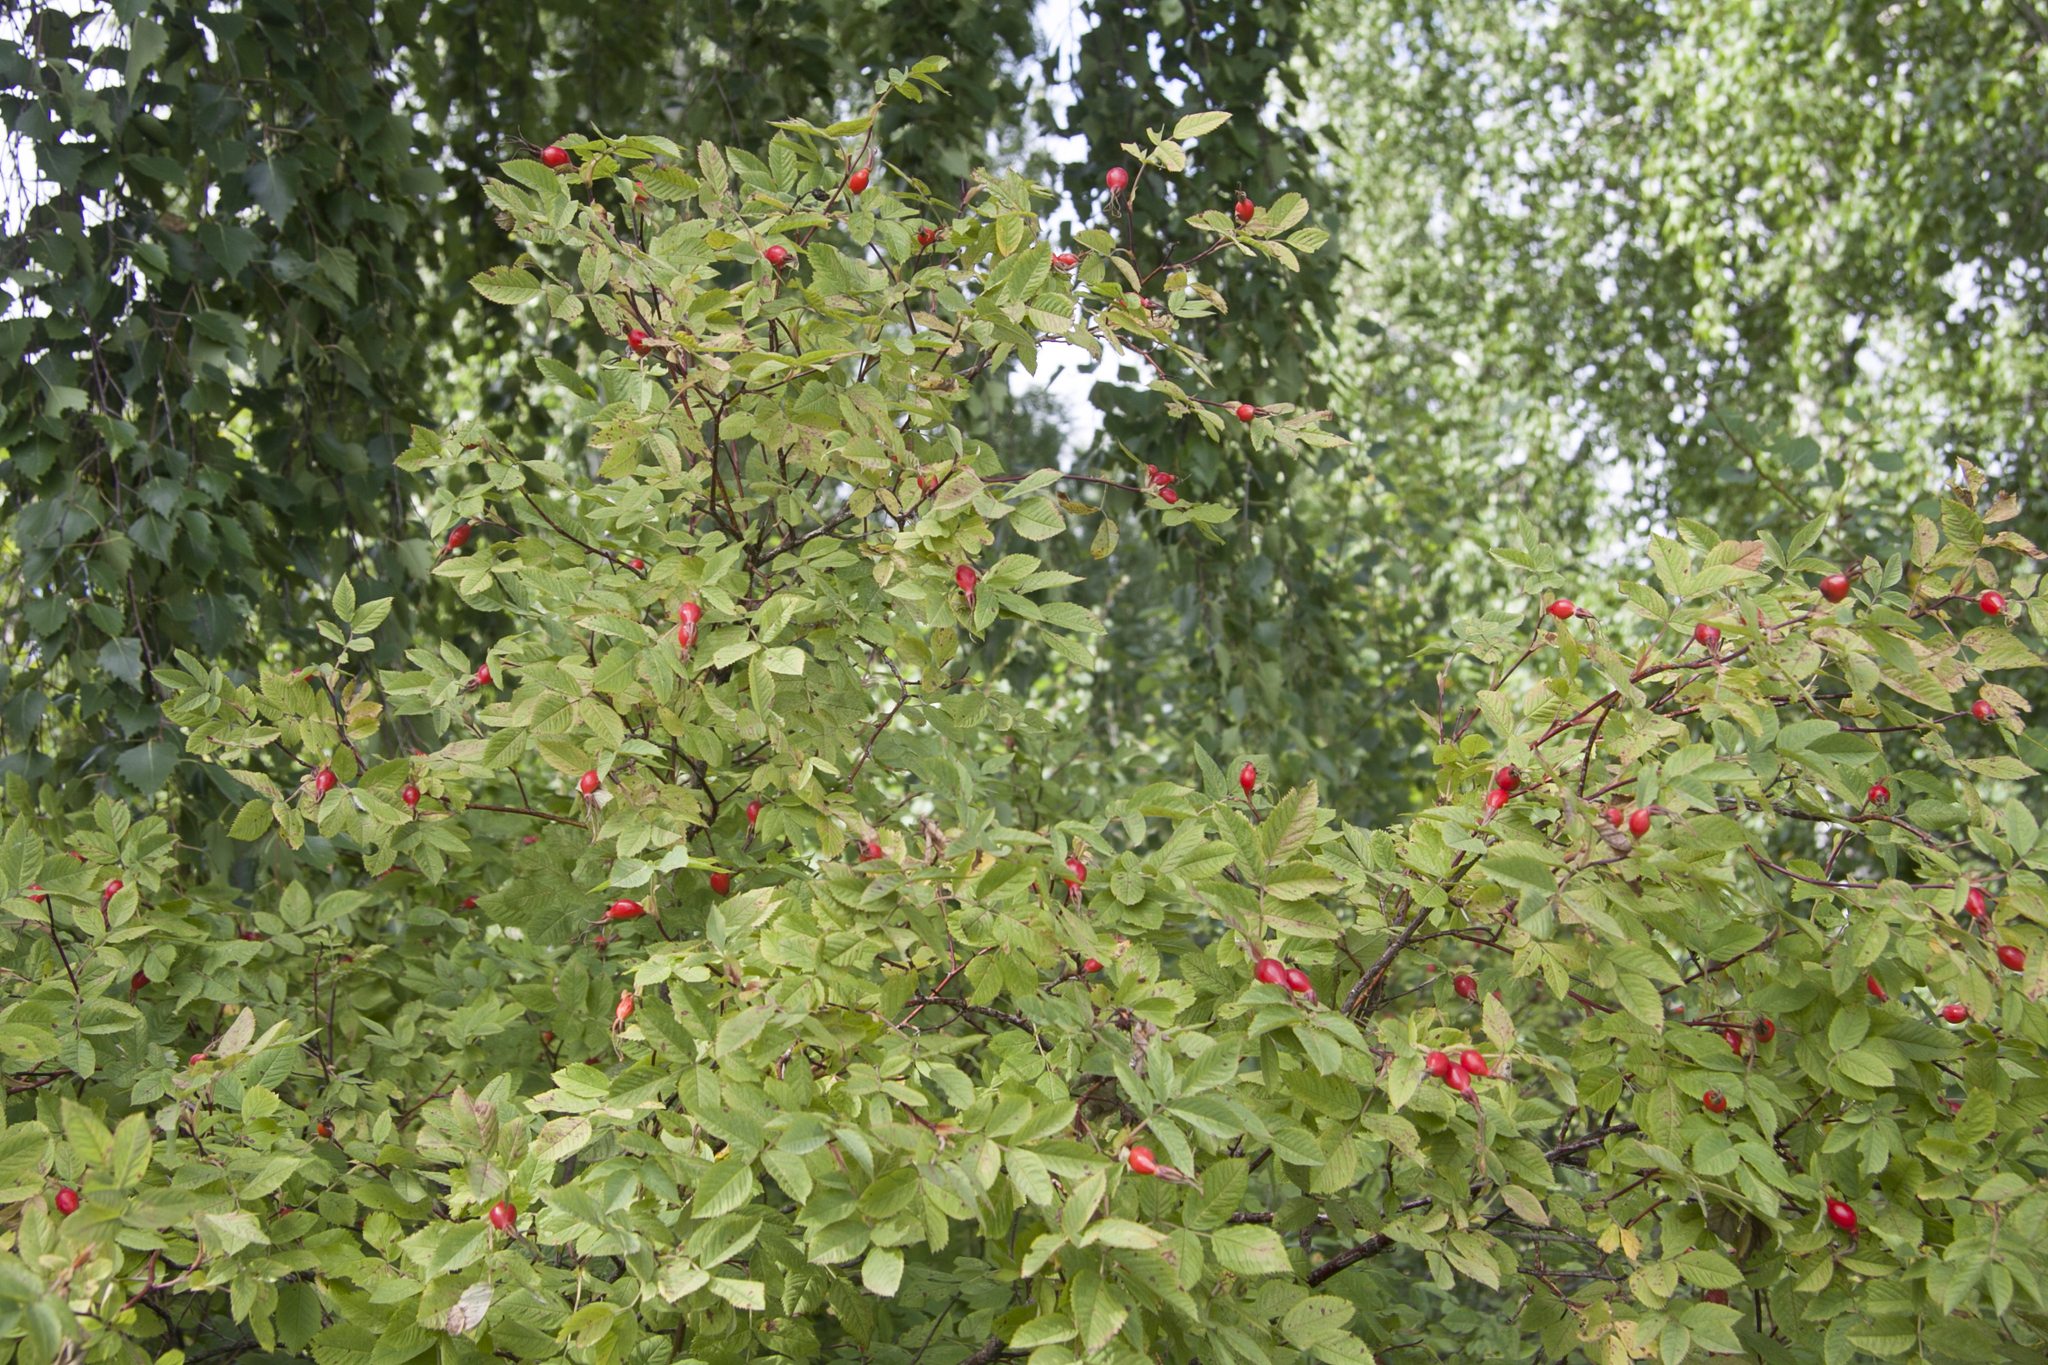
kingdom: Plantae
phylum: Tracheophyta
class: Magnoliopsida
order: Rosales
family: Rosaceae
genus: Rosa
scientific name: Rosa majalis
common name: Cinnamon rose
